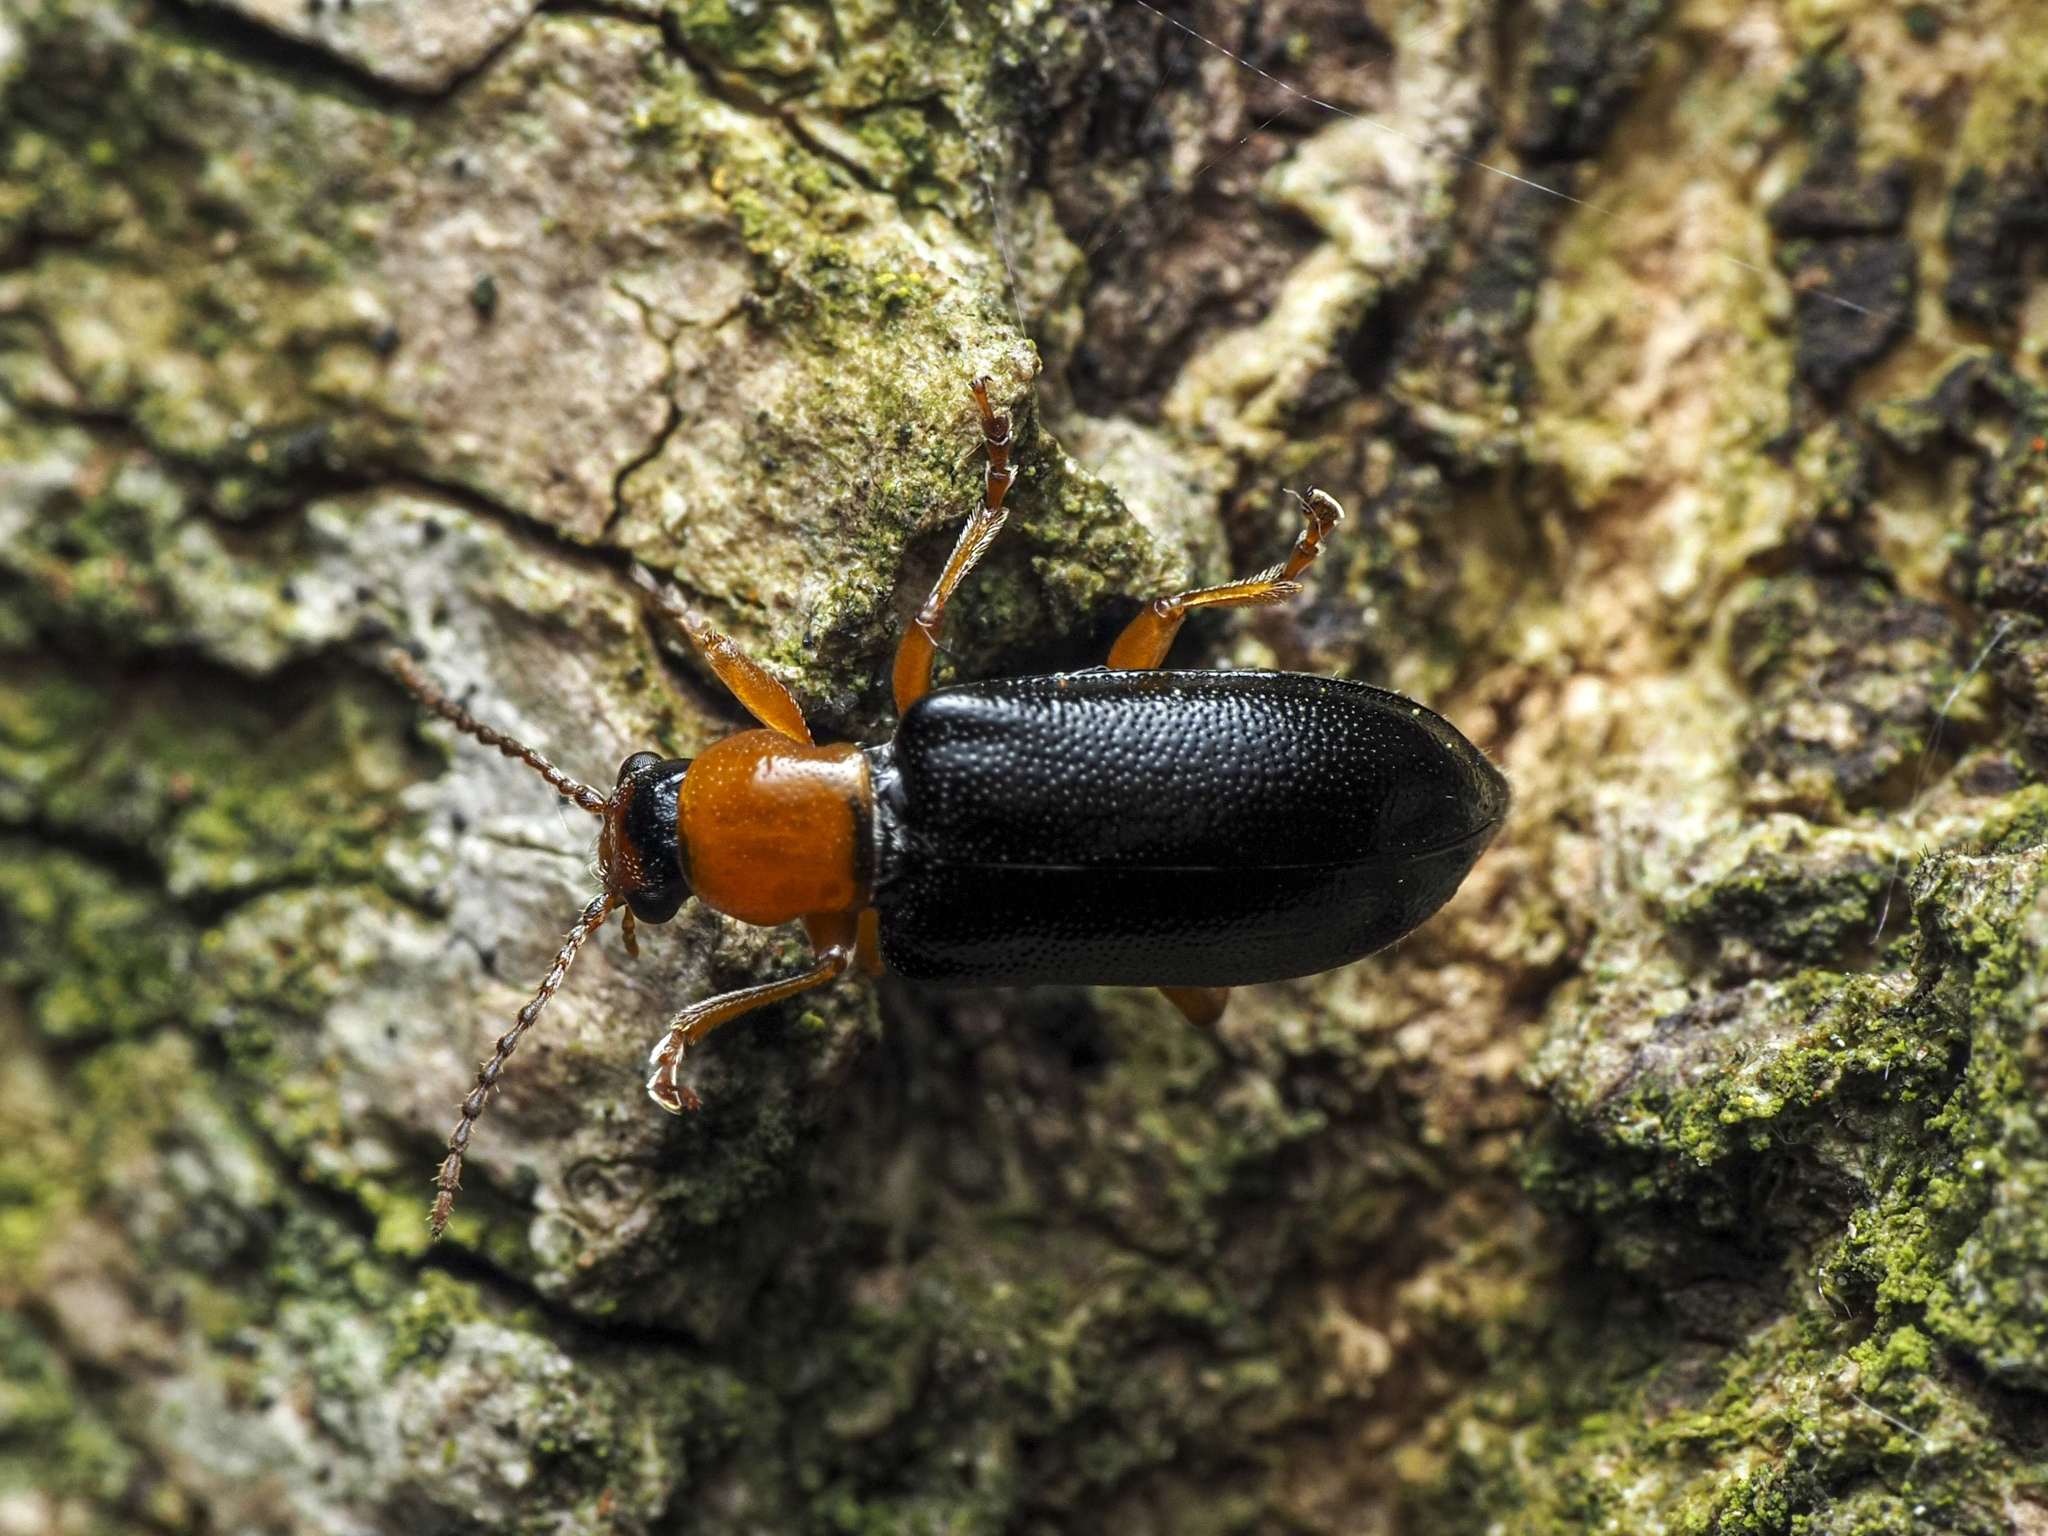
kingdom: Animalia
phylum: Arthropoda
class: Insecta
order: Coleoptera
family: Orsodacnidae
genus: Orsodacne
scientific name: Orsodacne cerasi
